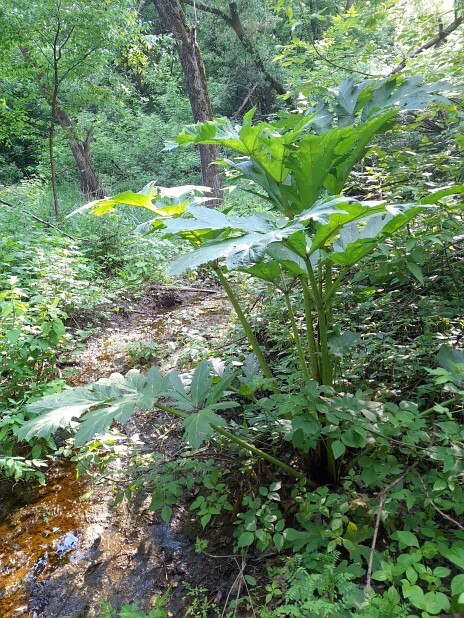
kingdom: Plantae
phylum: Tracheophyta
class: Magnoliopsida
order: Apiales
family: Apiaceae
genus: Heracleum
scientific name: Heracleum sosnowskyi
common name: Sosnowsky's hogweed
